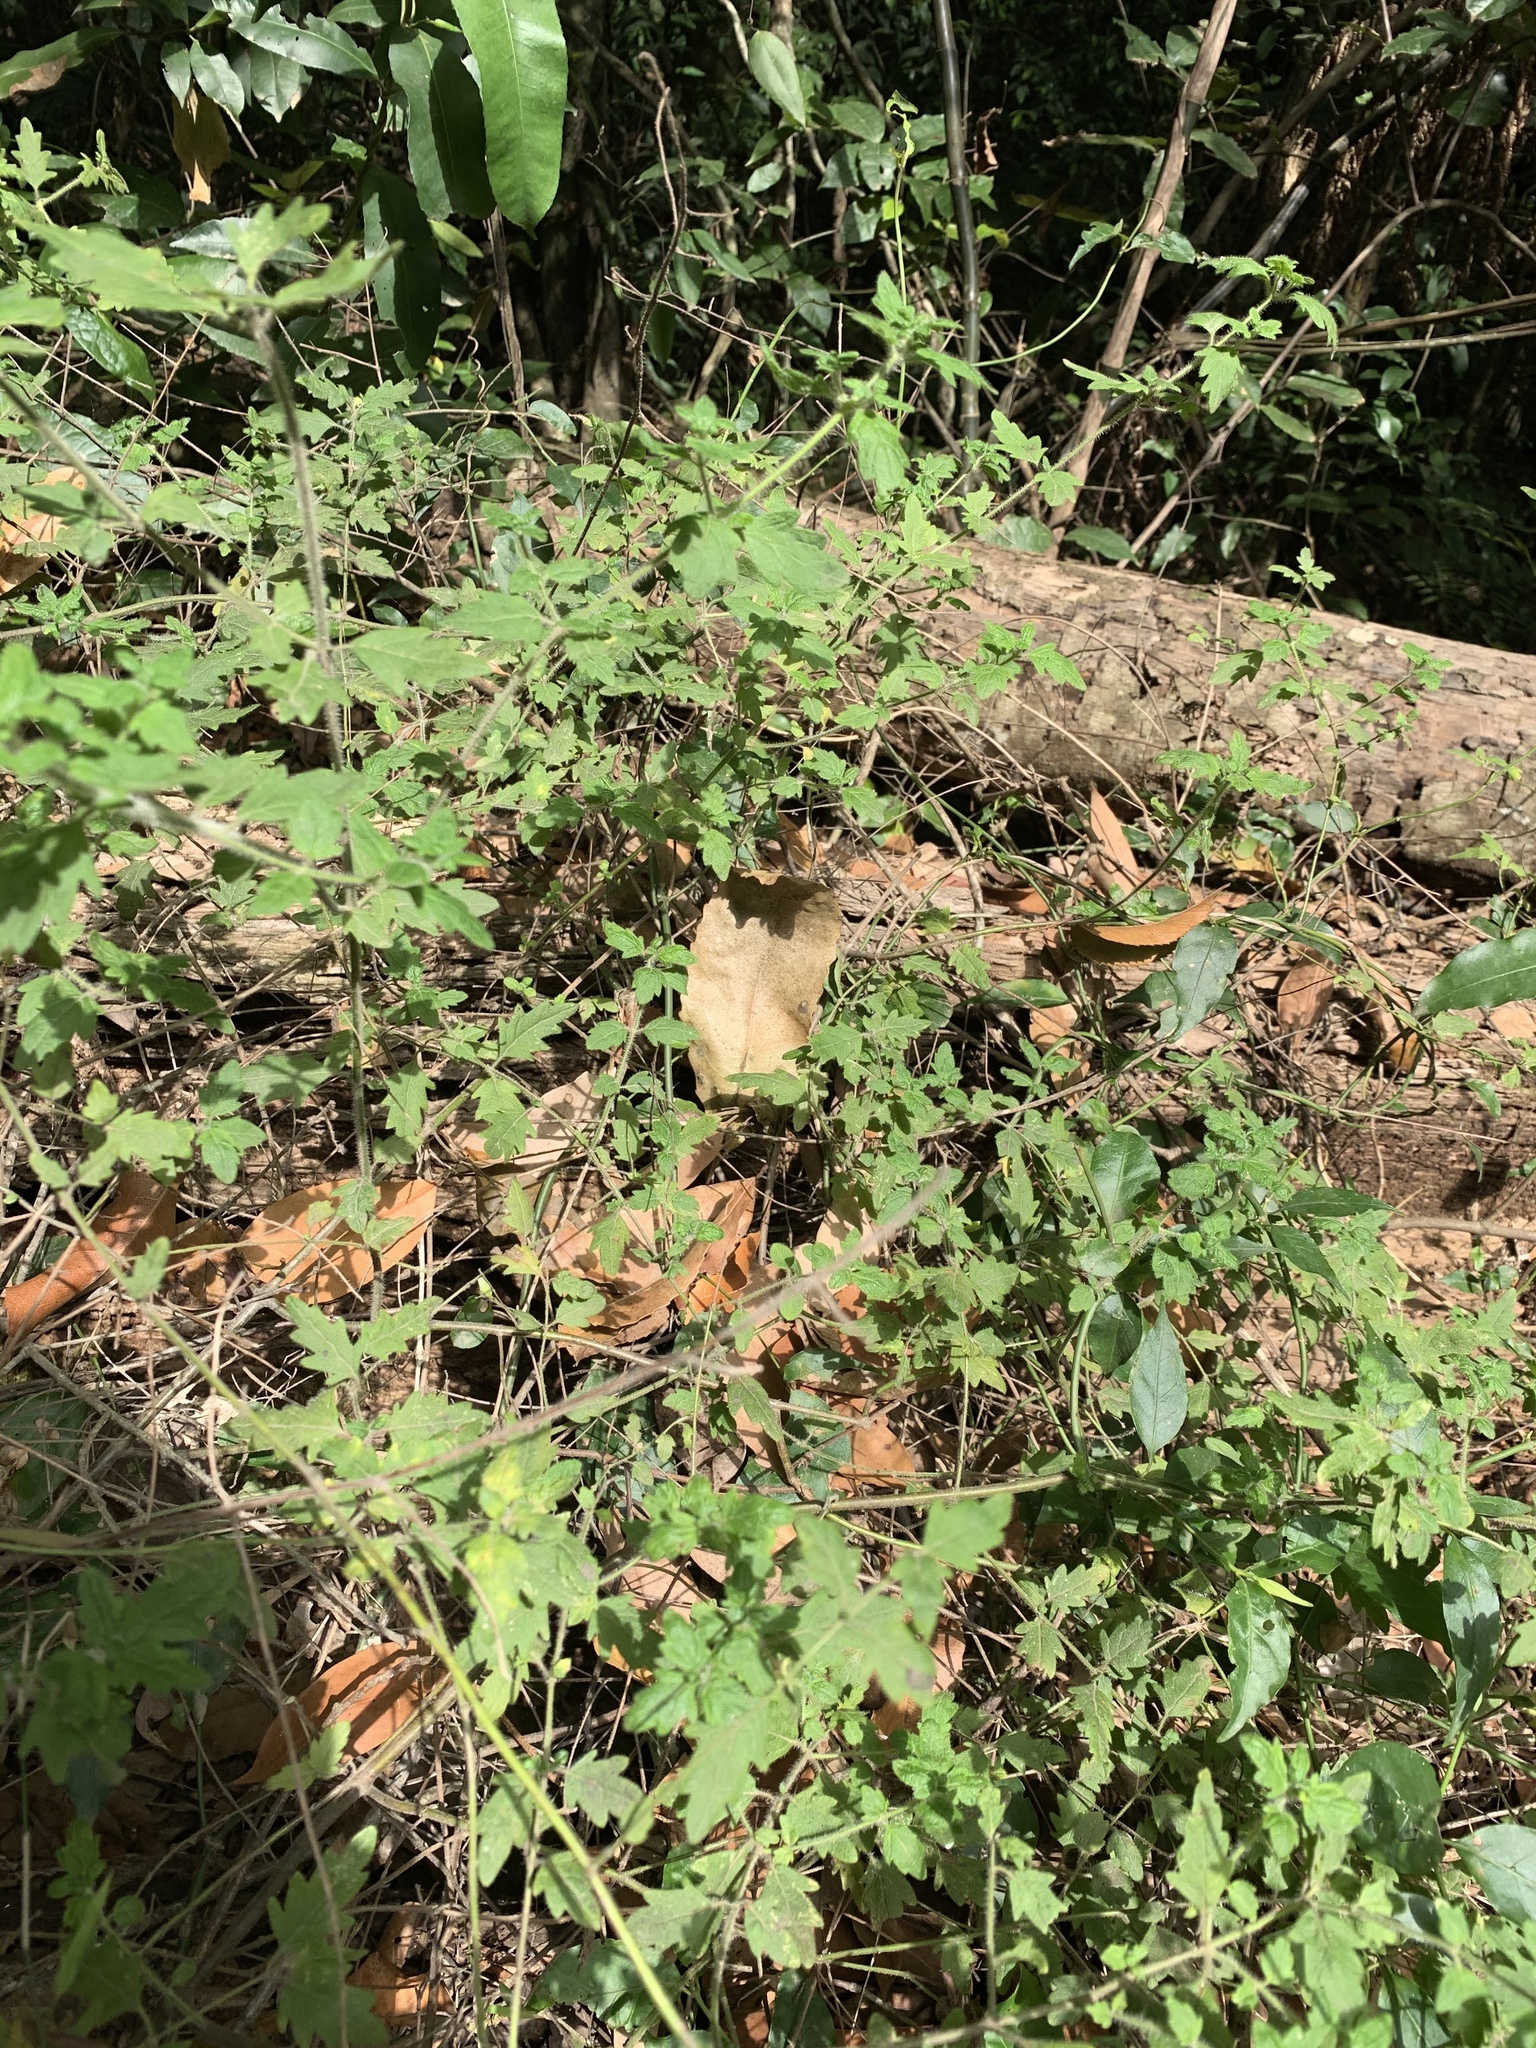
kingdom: Plantae
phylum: Tracheophyta
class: Magnoliopsida
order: Lamiales
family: Lamiaceae
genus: Prostanthera
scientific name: Prostanthera askania
